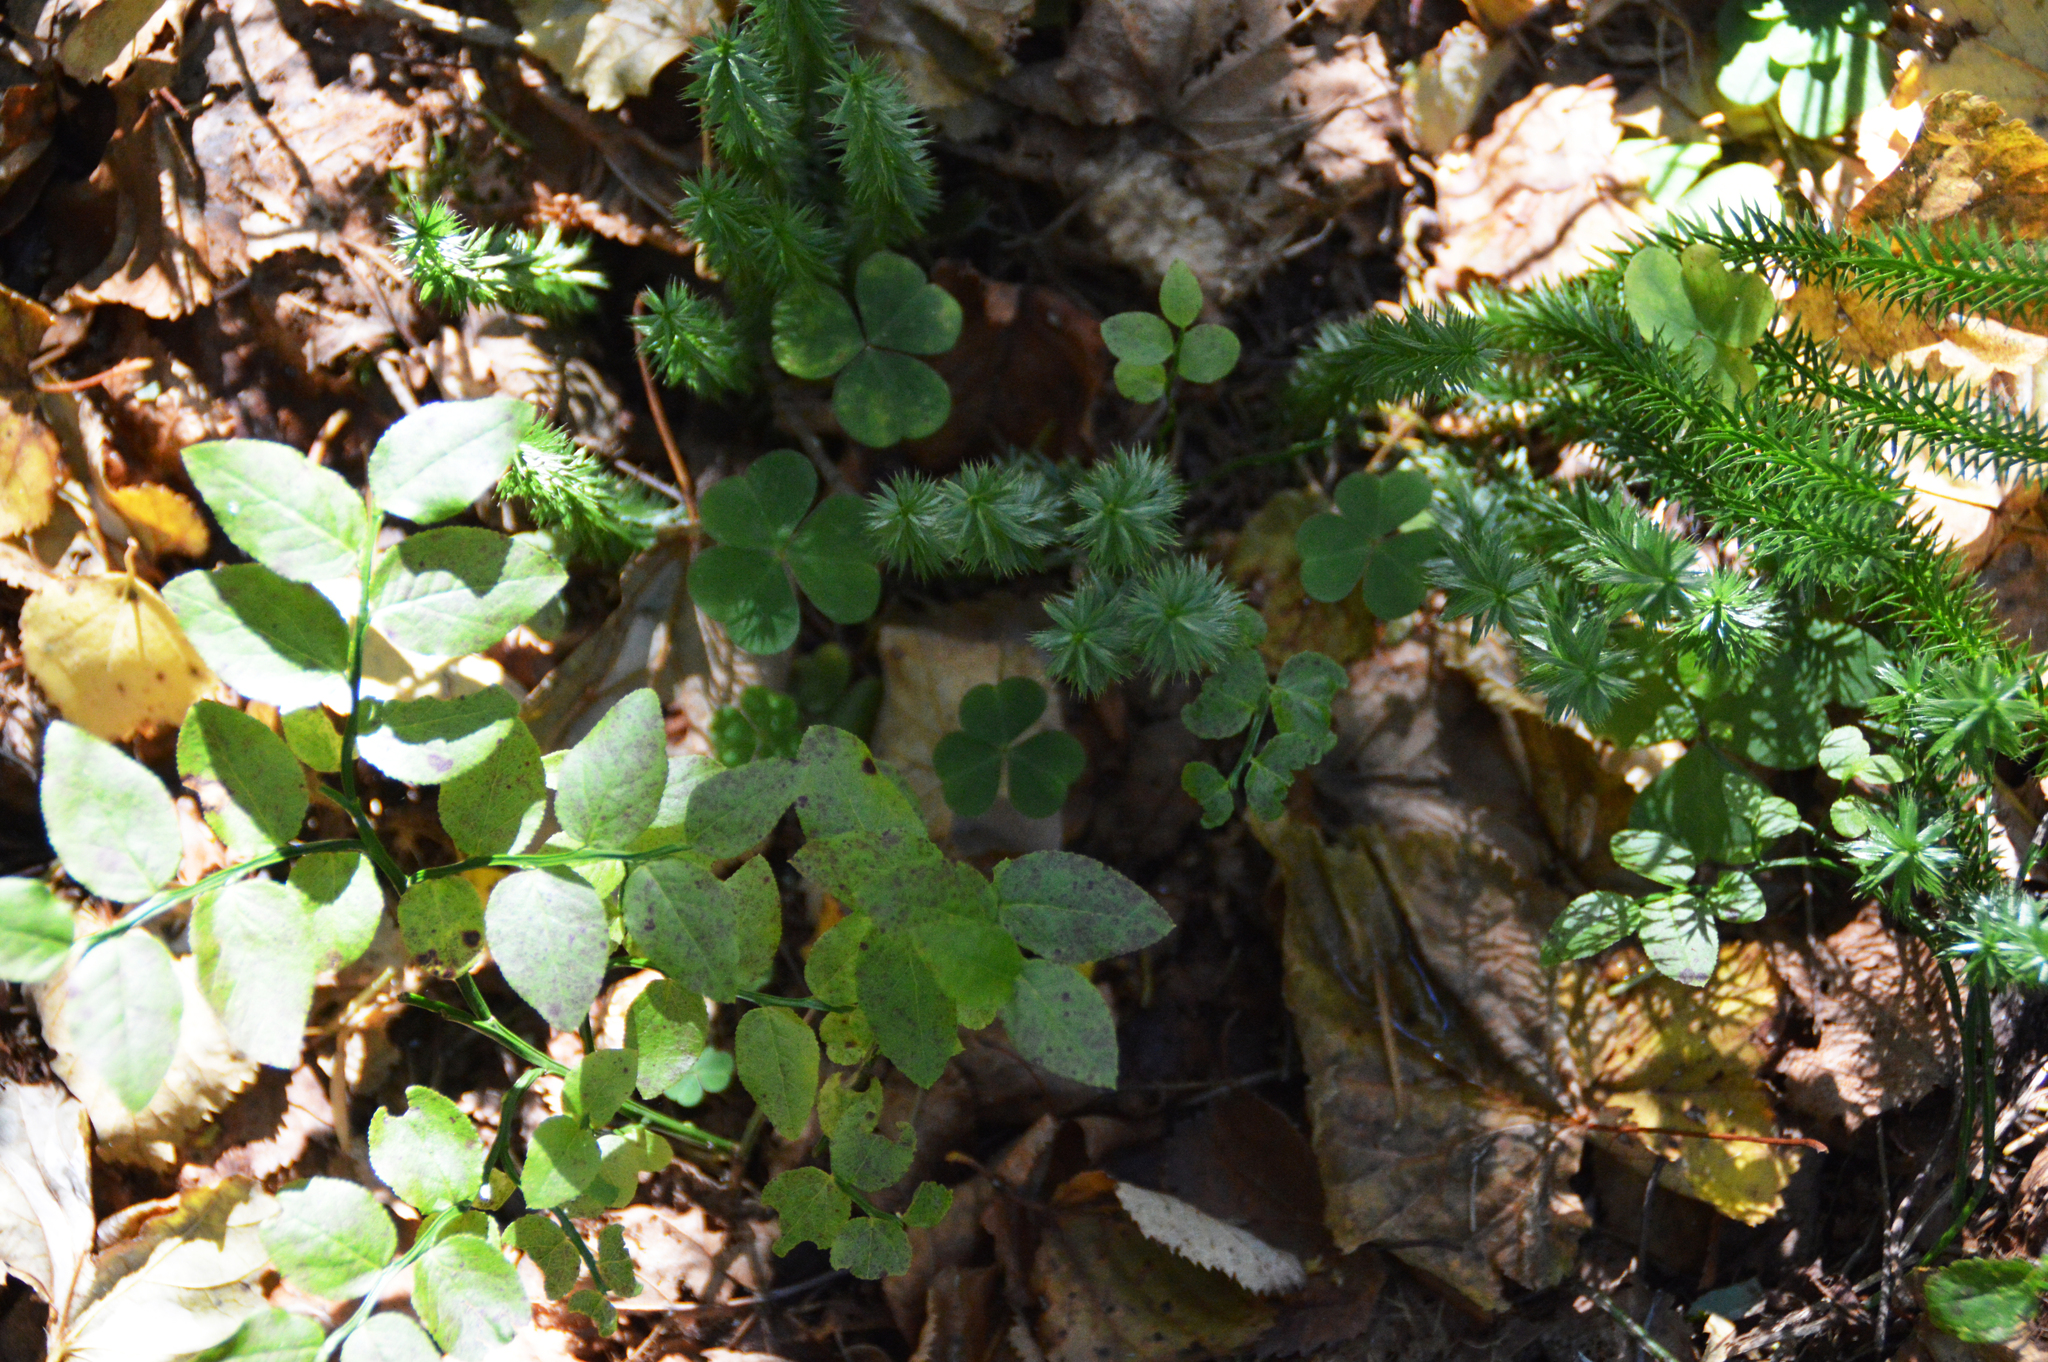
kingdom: Plantae
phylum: Tracheophyta
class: Magnoliopsida
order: Ericales
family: Ericaceae
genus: Vaccinium
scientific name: Vaccinium myrtillus
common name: Bilberry
